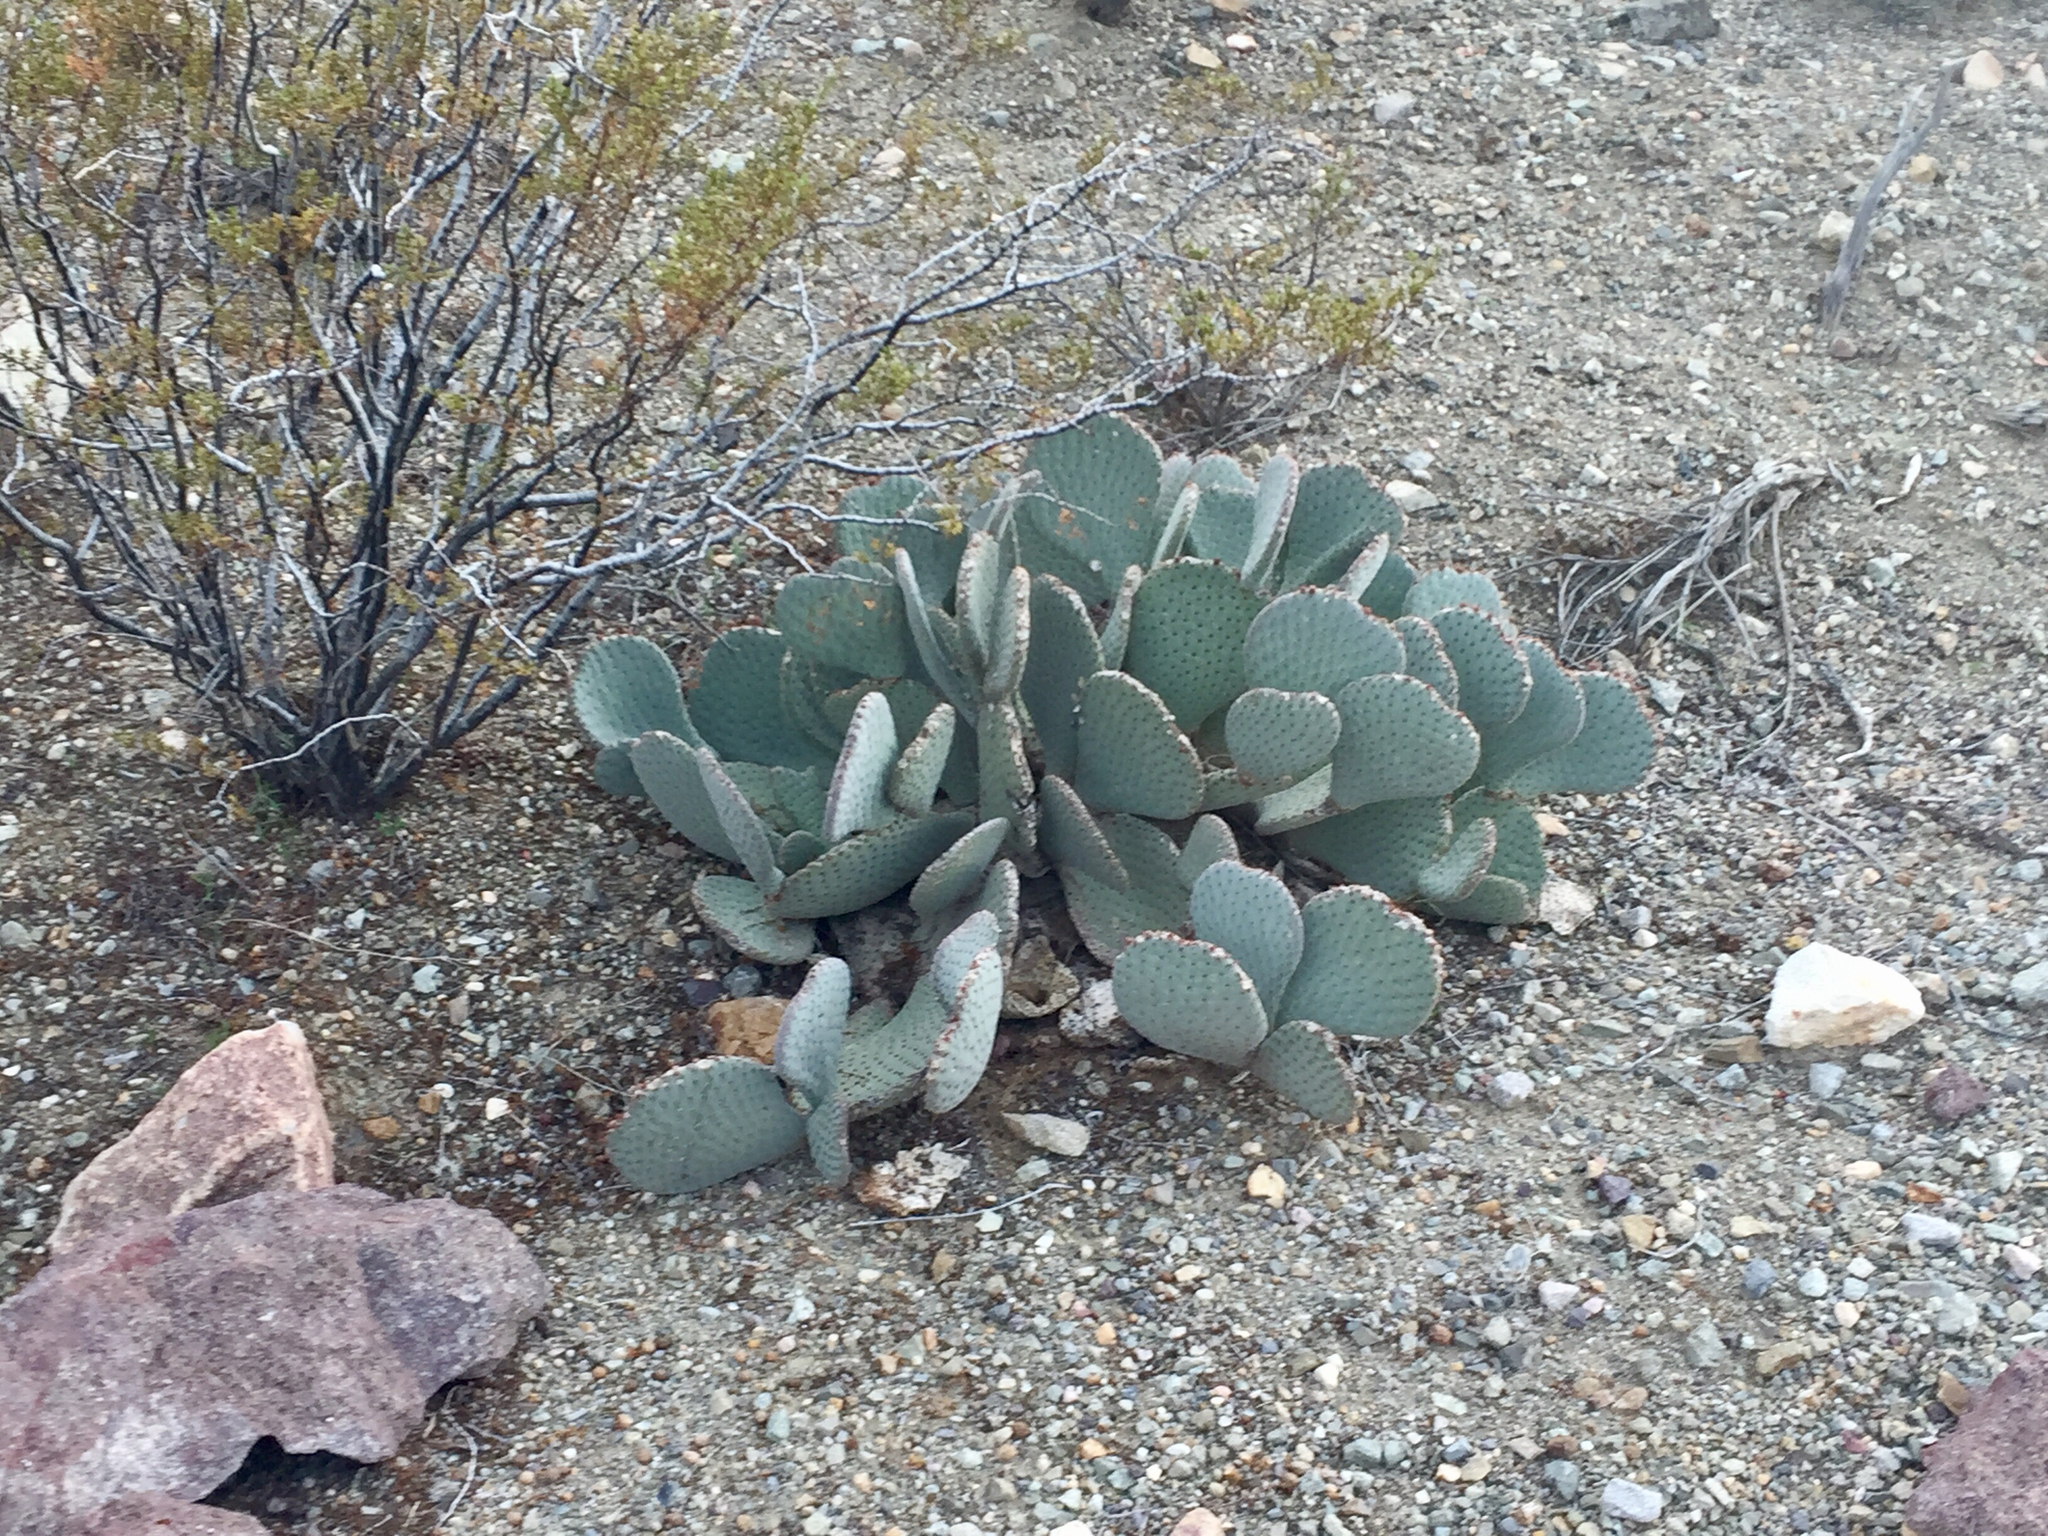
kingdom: Plantae
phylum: Tracheophyta
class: Magnoliopsida
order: Caryophyllales
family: Cactaceae
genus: Opuntia
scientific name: Opuntia basilaris
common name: Beavertail prickly-pear
